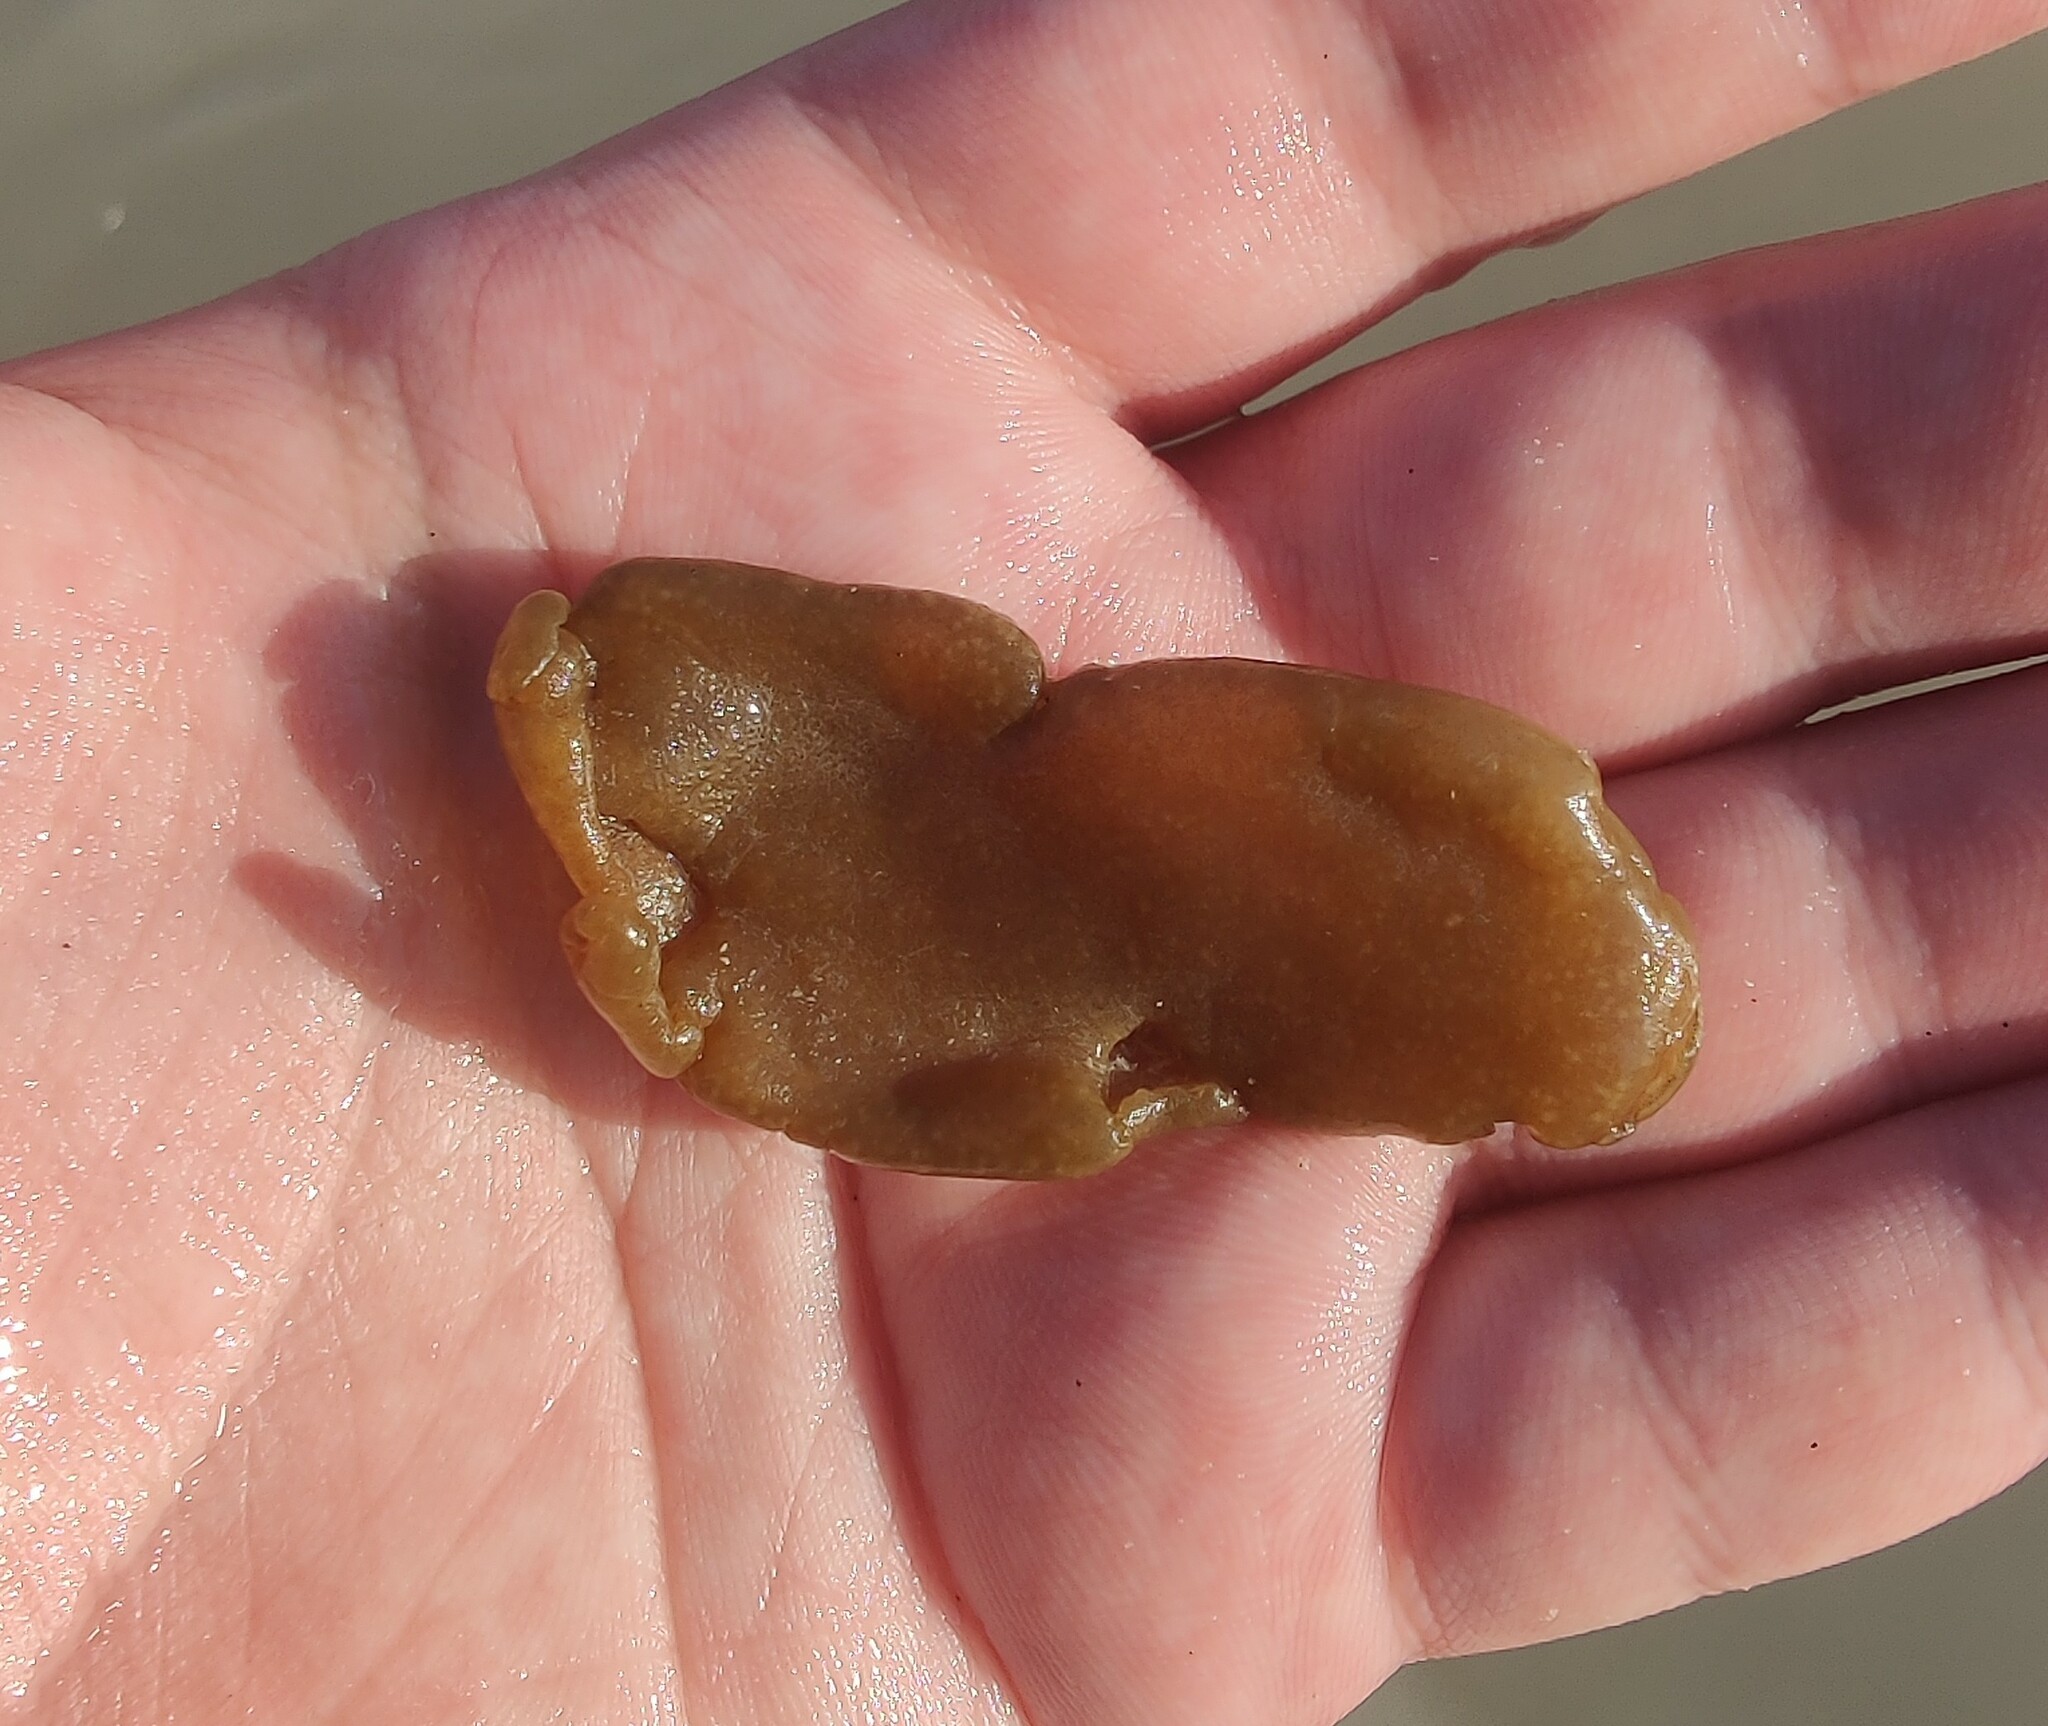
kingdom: Chromista
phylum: Ochrophyta
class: Phaeophyceae
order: Scytosiphonales
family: Scytosiphonaceae
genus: Colpomenia
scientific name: Colpomenia peregrina
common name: Oyster thief
